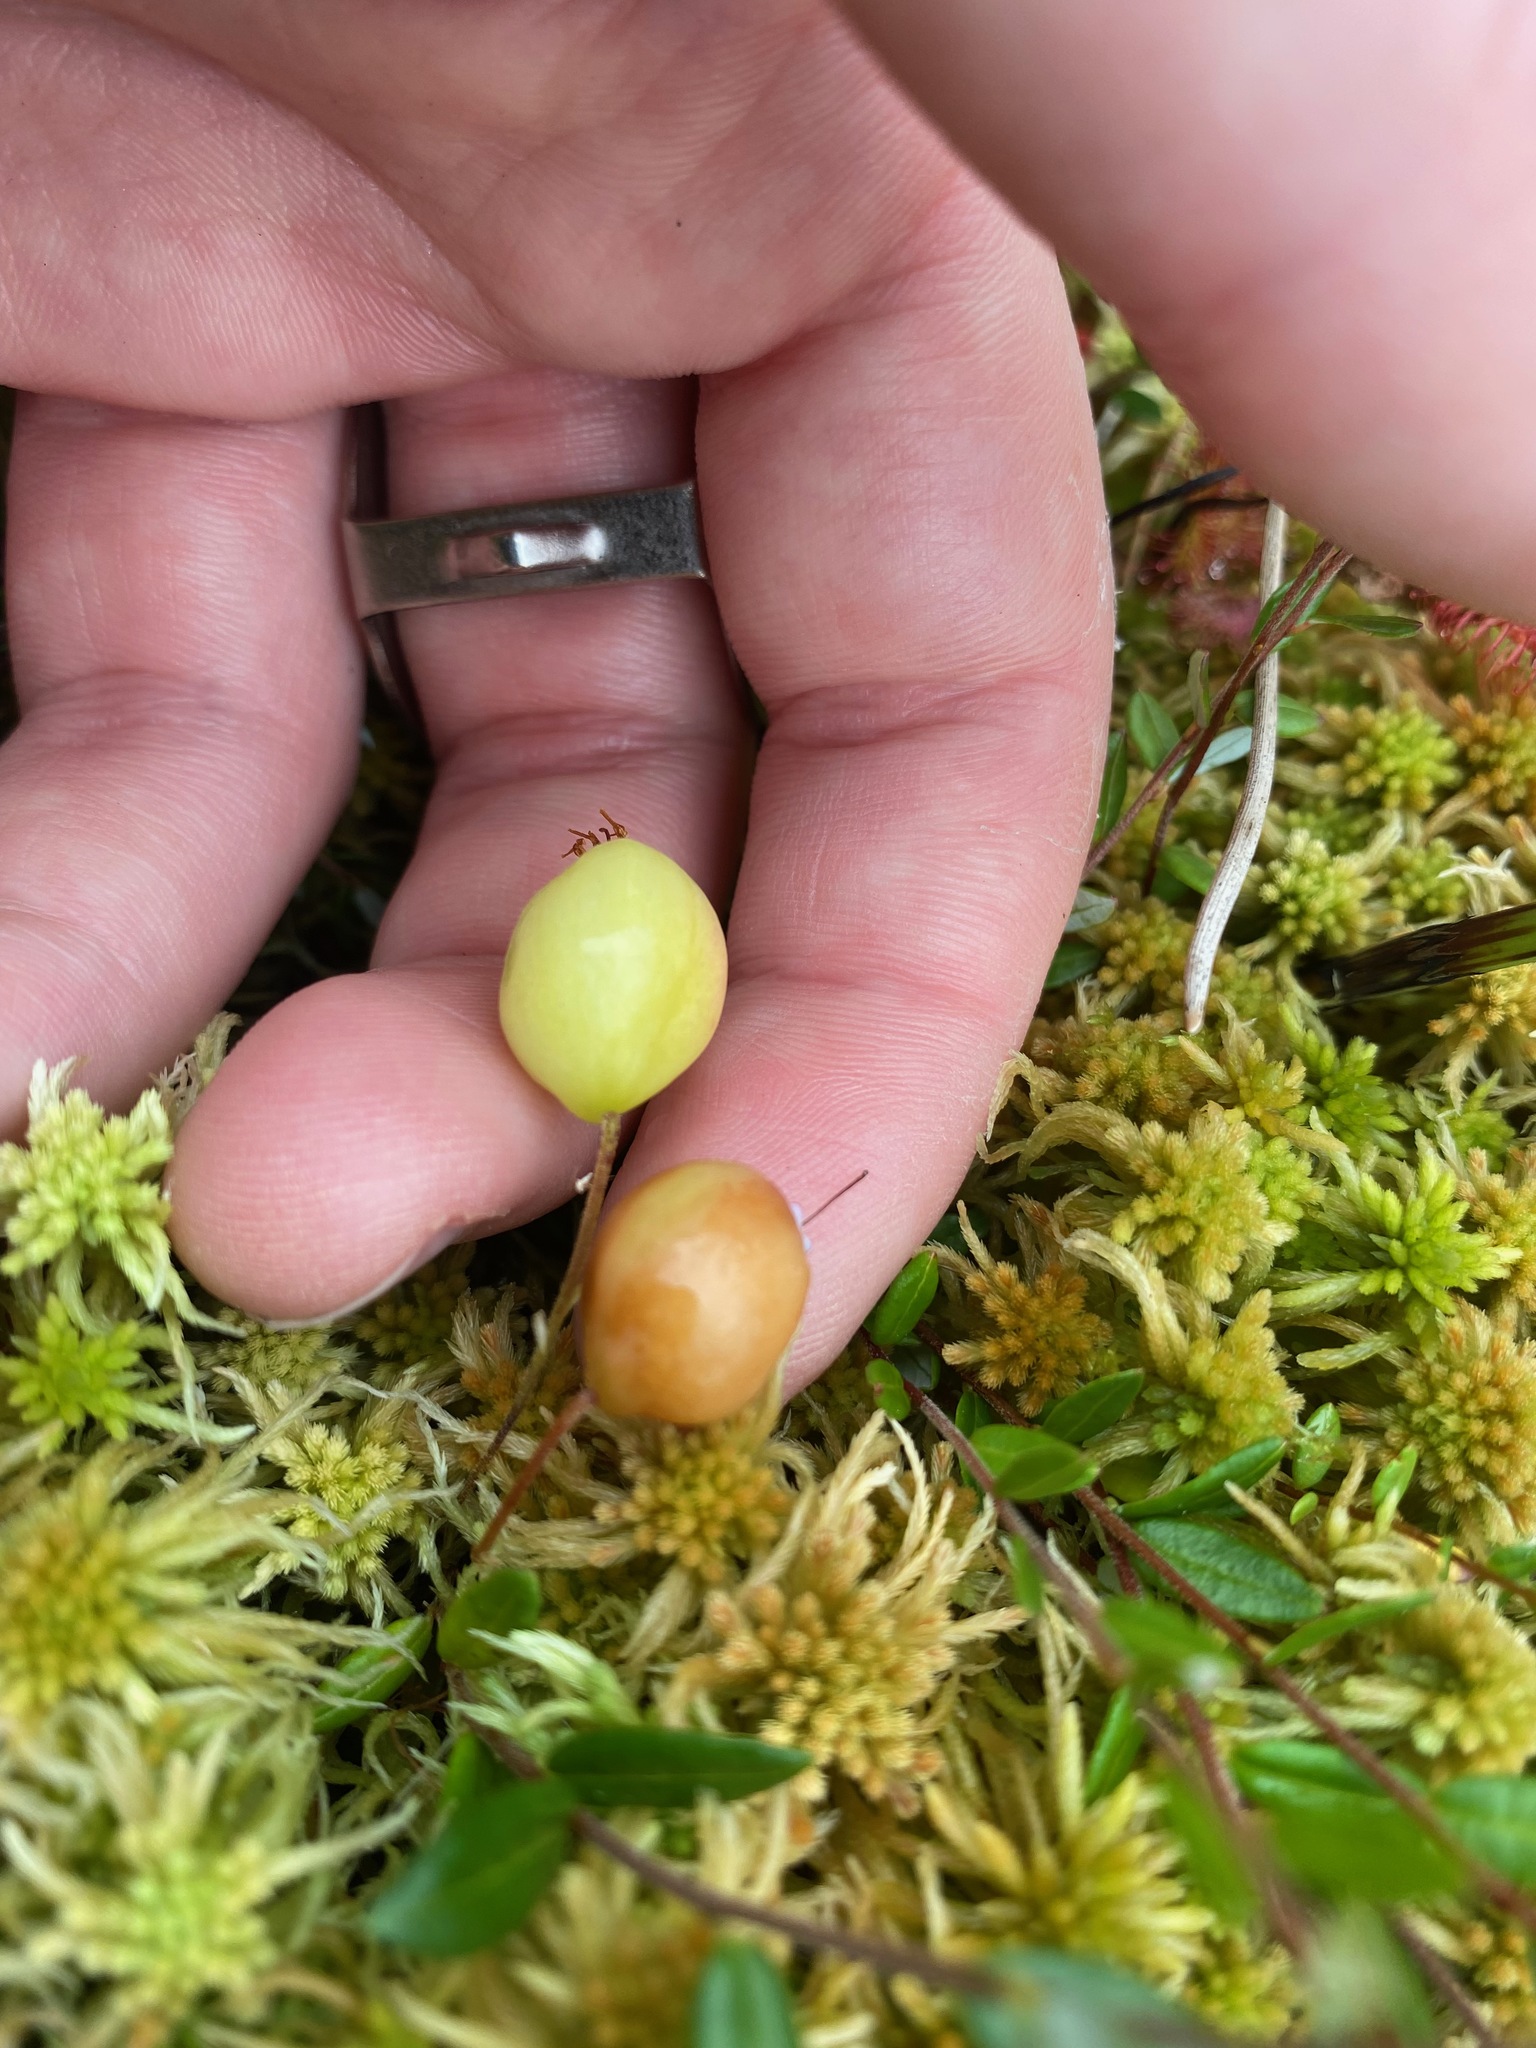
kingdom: Plantae
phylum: Tracheophyta
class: Magnoliopsida
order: Ericales
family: Ericaceae
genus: Vaccinium
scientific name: Vaccinium oxycoccos
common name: Cranberry
